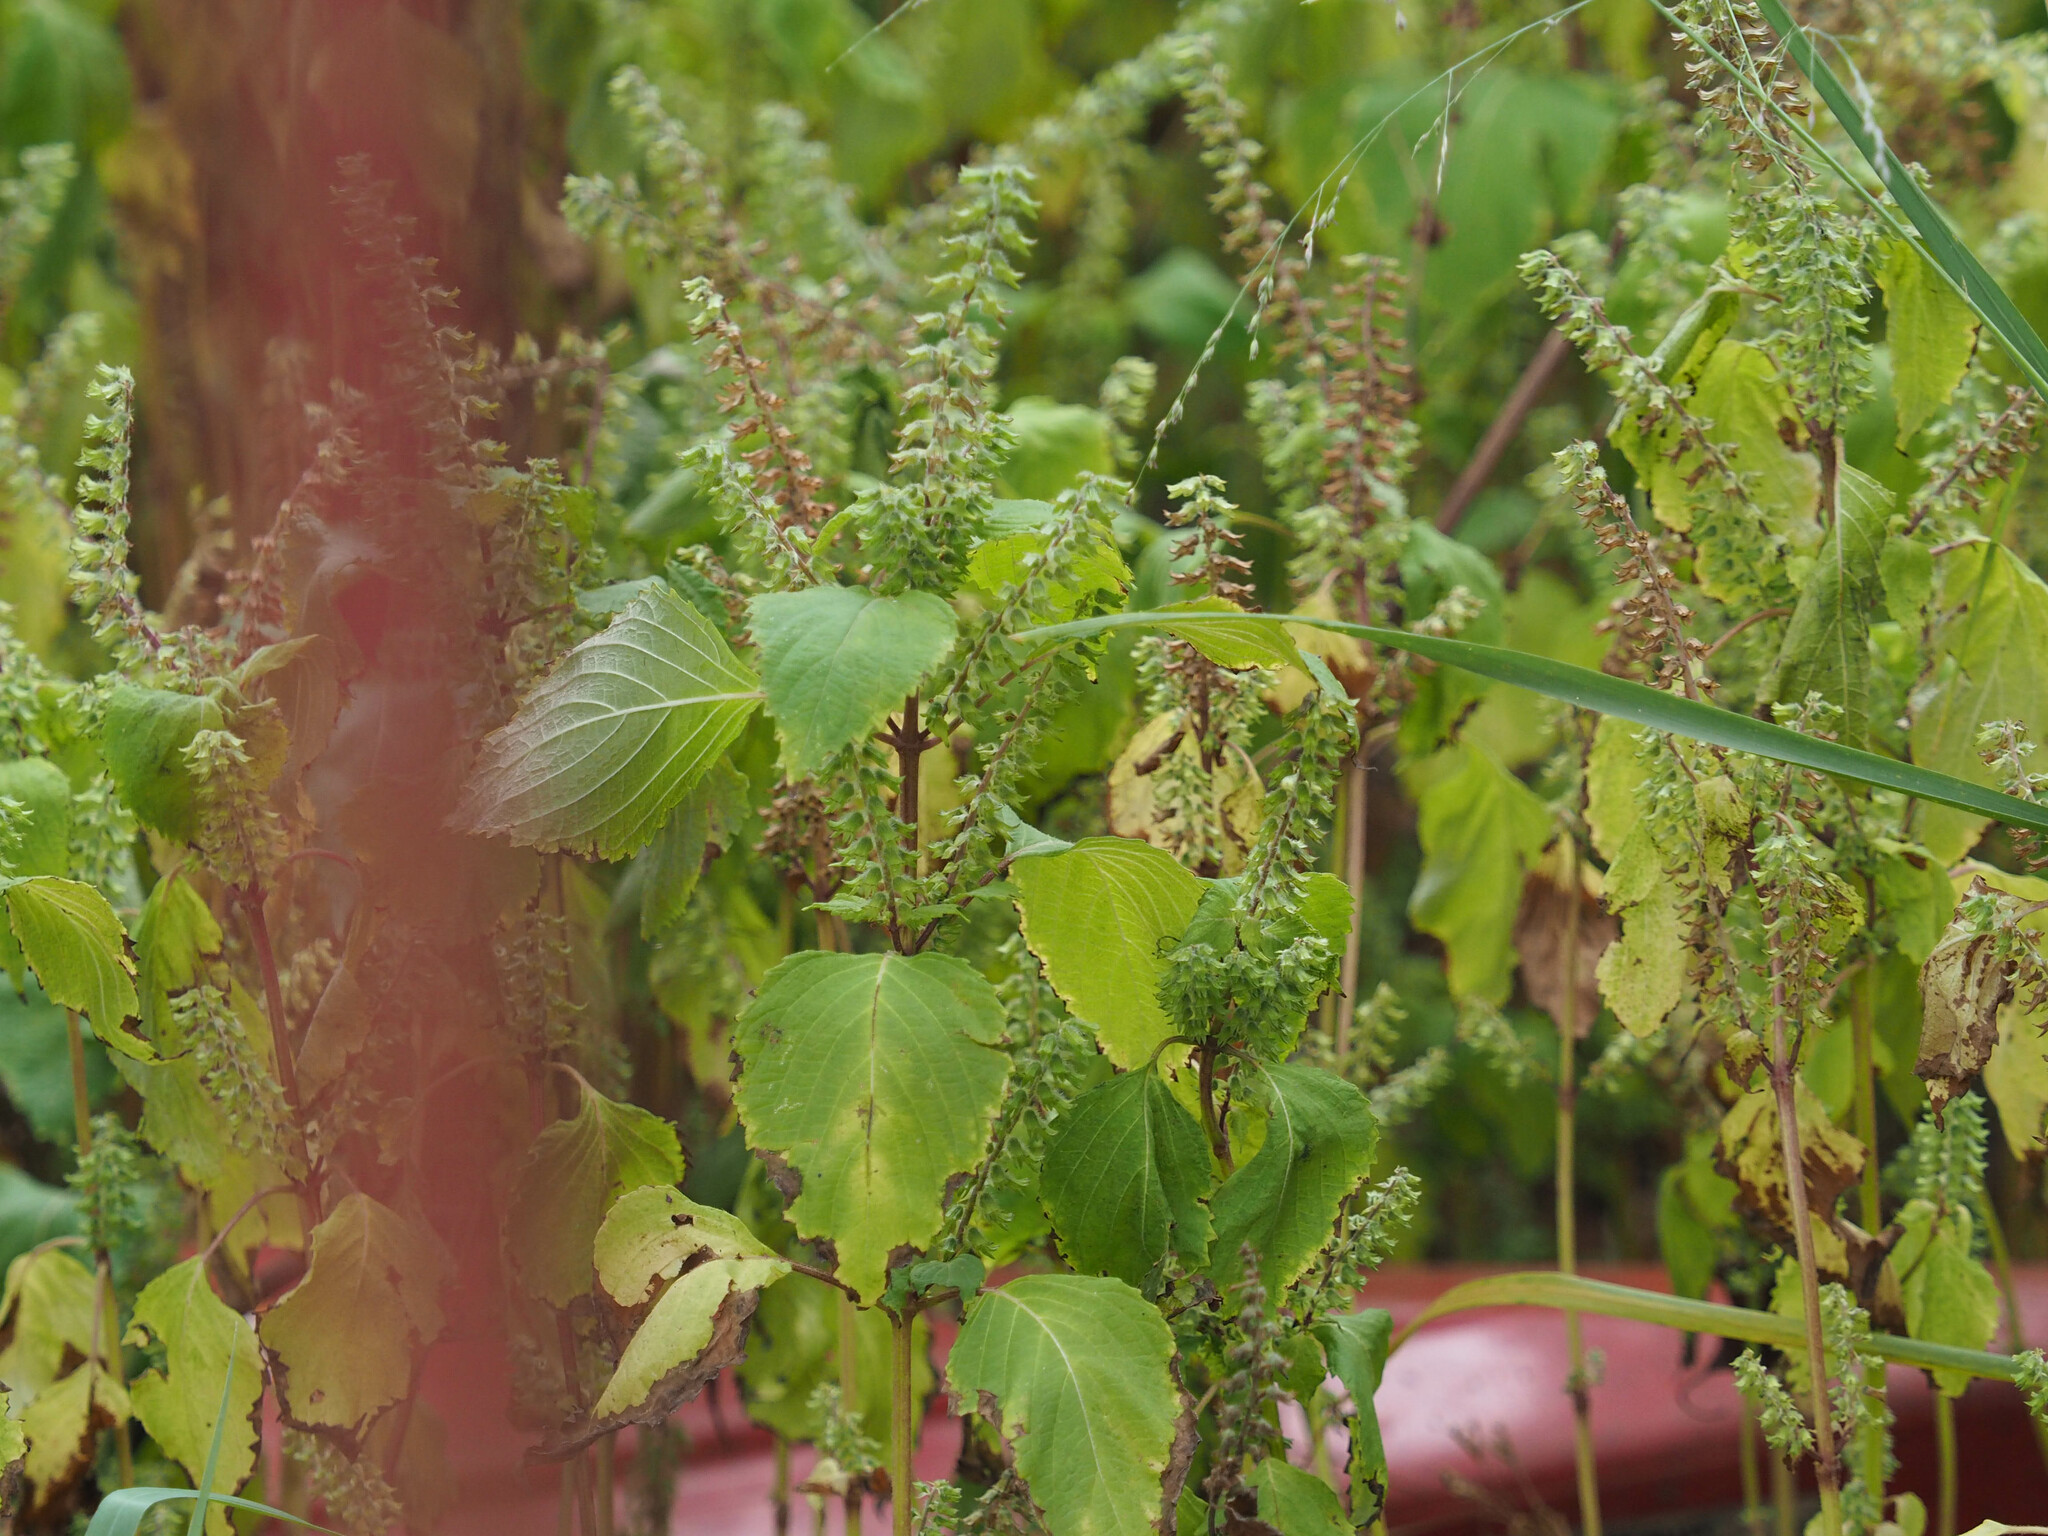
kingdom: Plantae
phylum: Tracheophyta
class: Magnoliopsida
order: Lamiales
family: Lamiaceae
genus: Perilla
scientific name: Perilla frutescens
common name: Perilla
